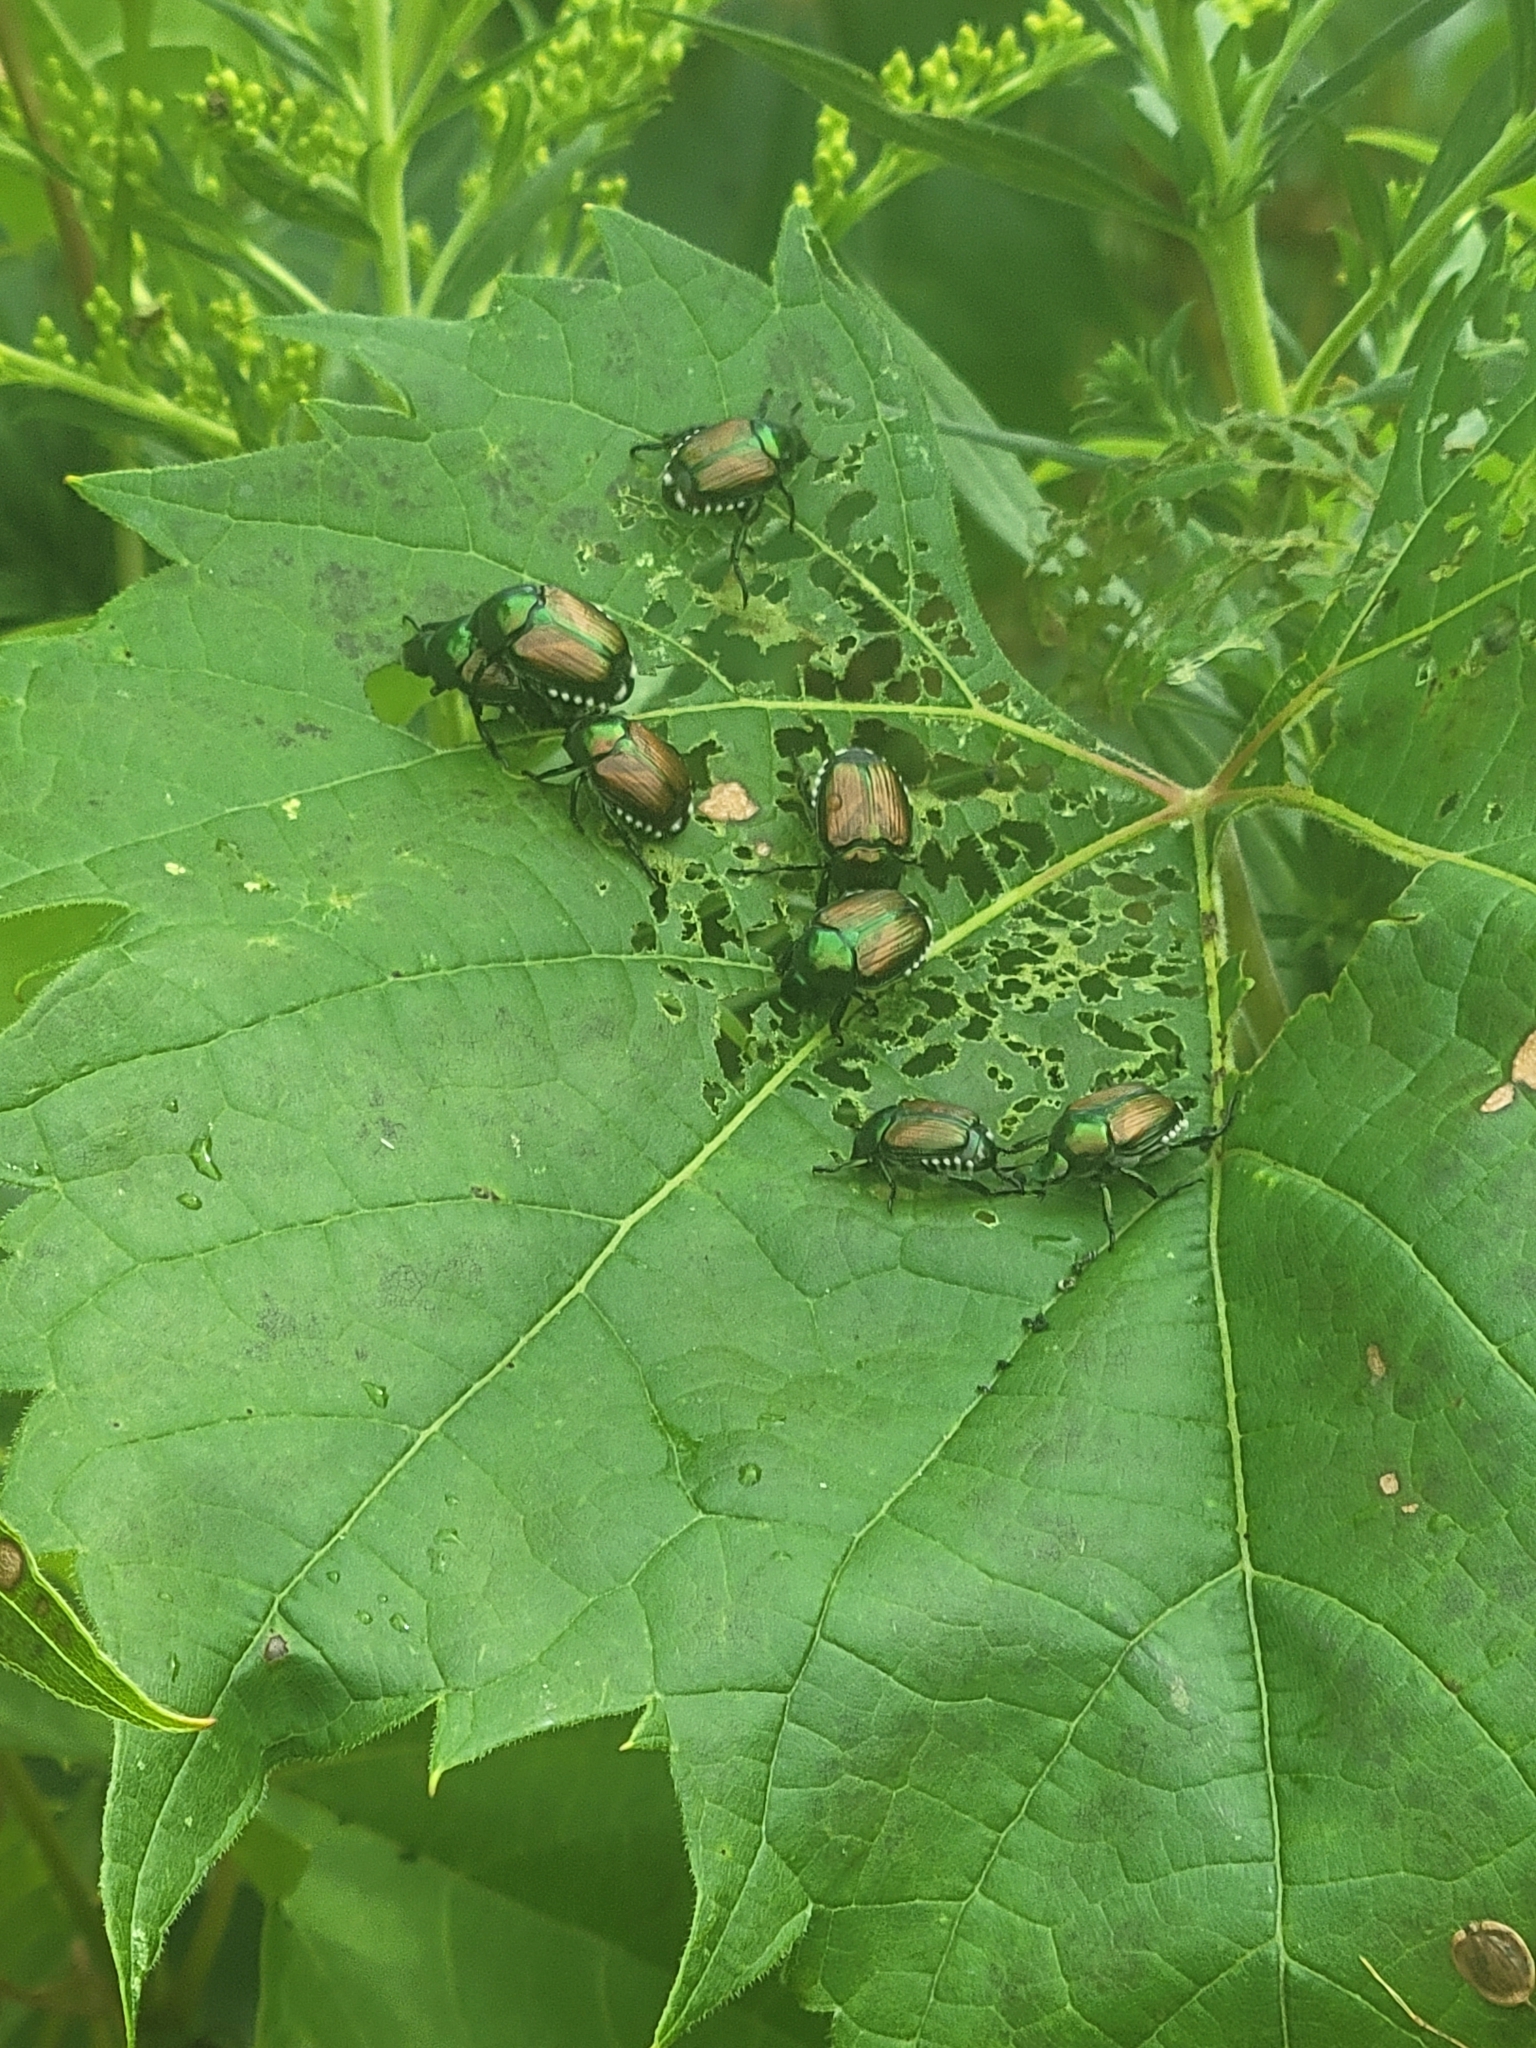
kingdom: Animalia
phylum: Arthropoda
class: Insecta
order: Coleoptera
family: Scarabaeidae
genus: Popillia
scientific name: Popillia japonica
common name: Japanese beetle
